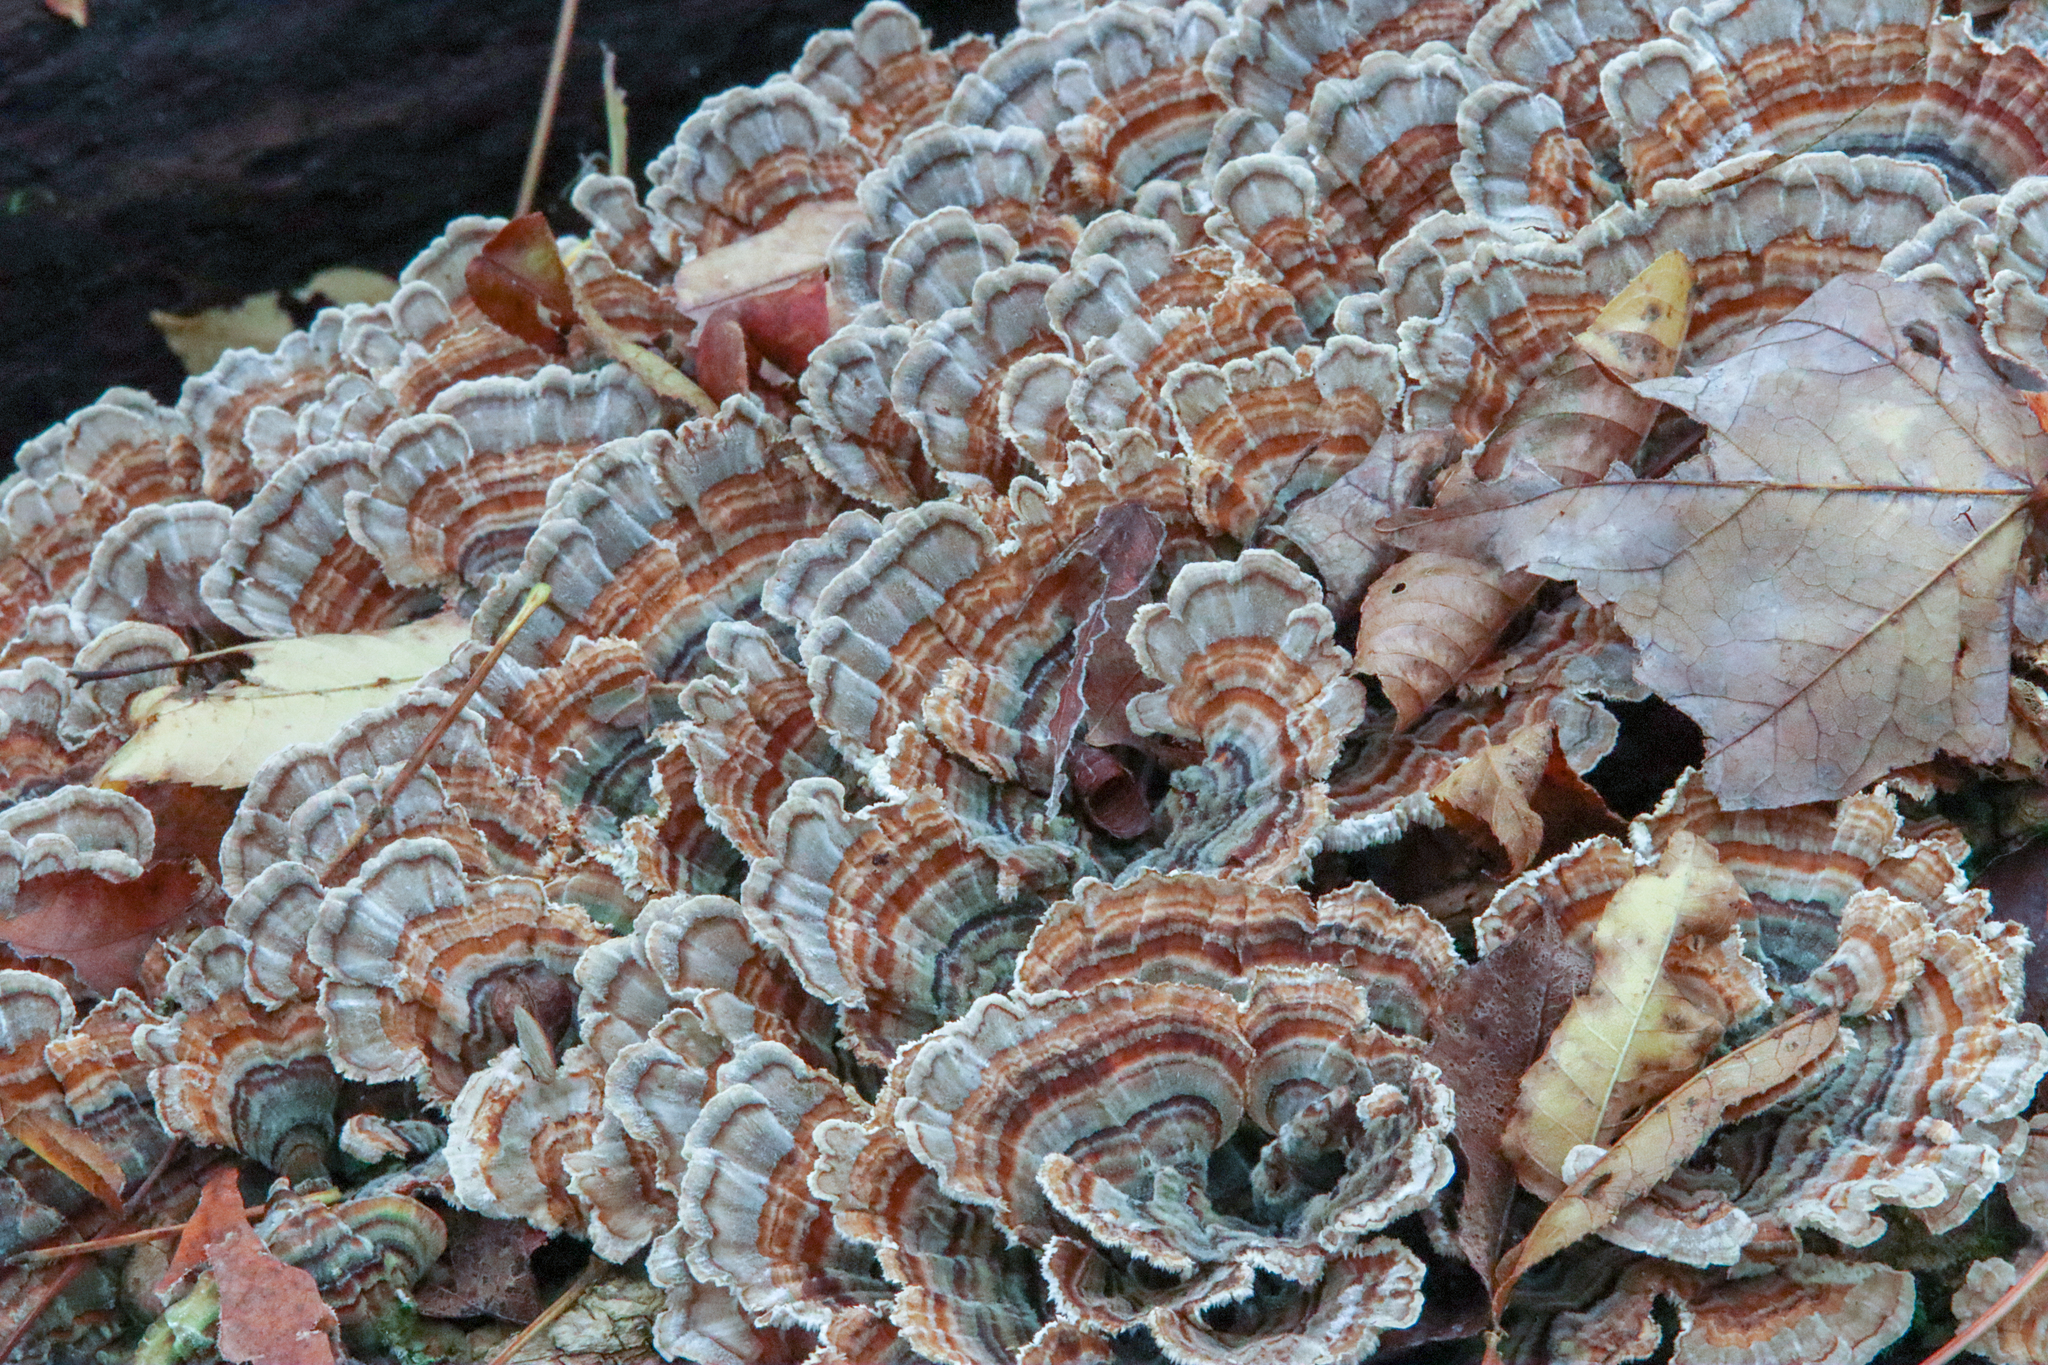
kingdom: Fungi
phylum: Basidiomycota
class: Agaricomycetes
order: Polyporales
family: Polyporaceae
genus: Trametes
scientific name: Trametes versicolor
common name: Turkeytail
